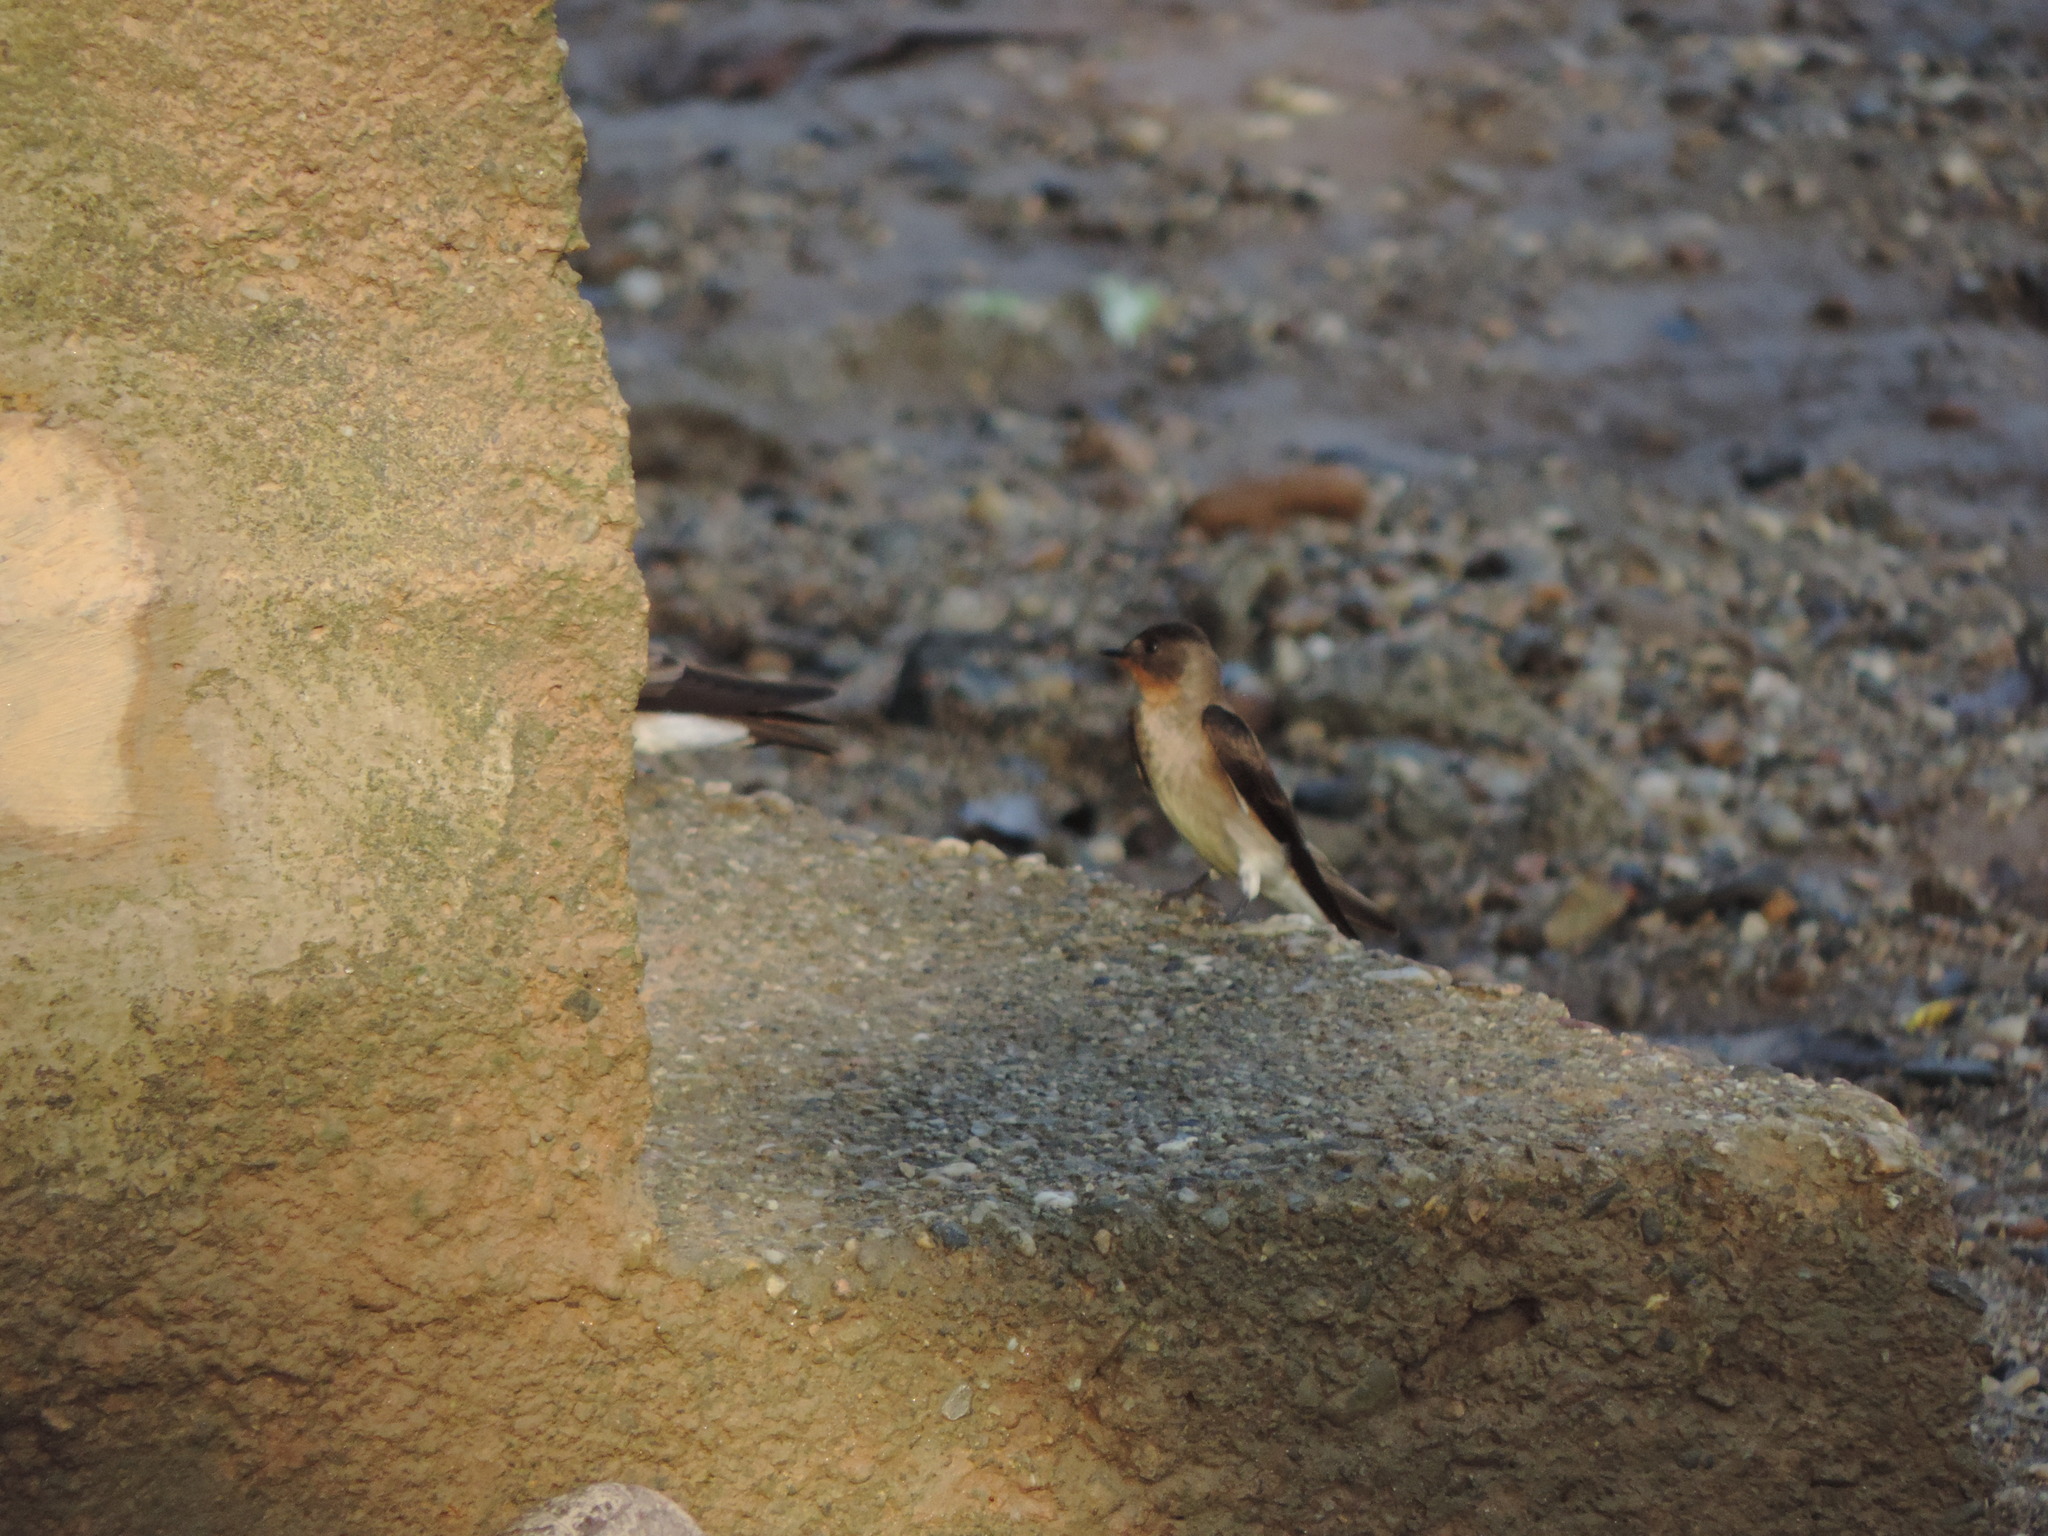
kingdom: Animalia
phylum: Chordata
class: Aves
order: Passeriformes
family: Hirundinidae
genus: Stelgidopteryx
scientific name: Stelgidopteryx ruficollis
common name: Southern rough-winged swallow
